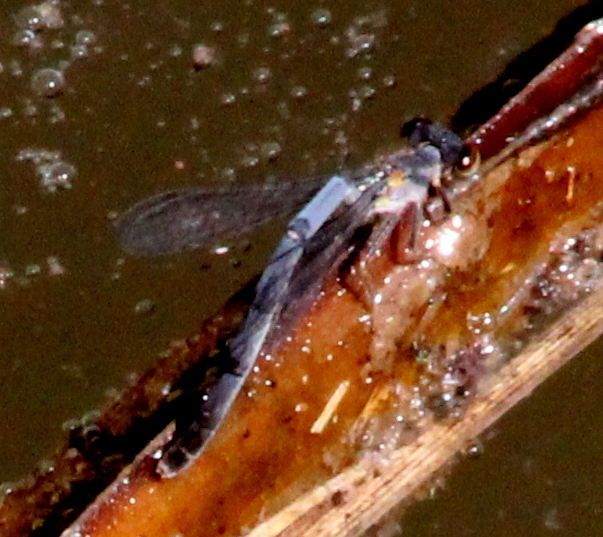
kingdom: Animalia
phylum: Arthropoda
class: Insecta
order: Odonata
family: Coenagrionidae
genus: Ischnura
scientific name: Ischnura posita
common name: Fragile forktail
